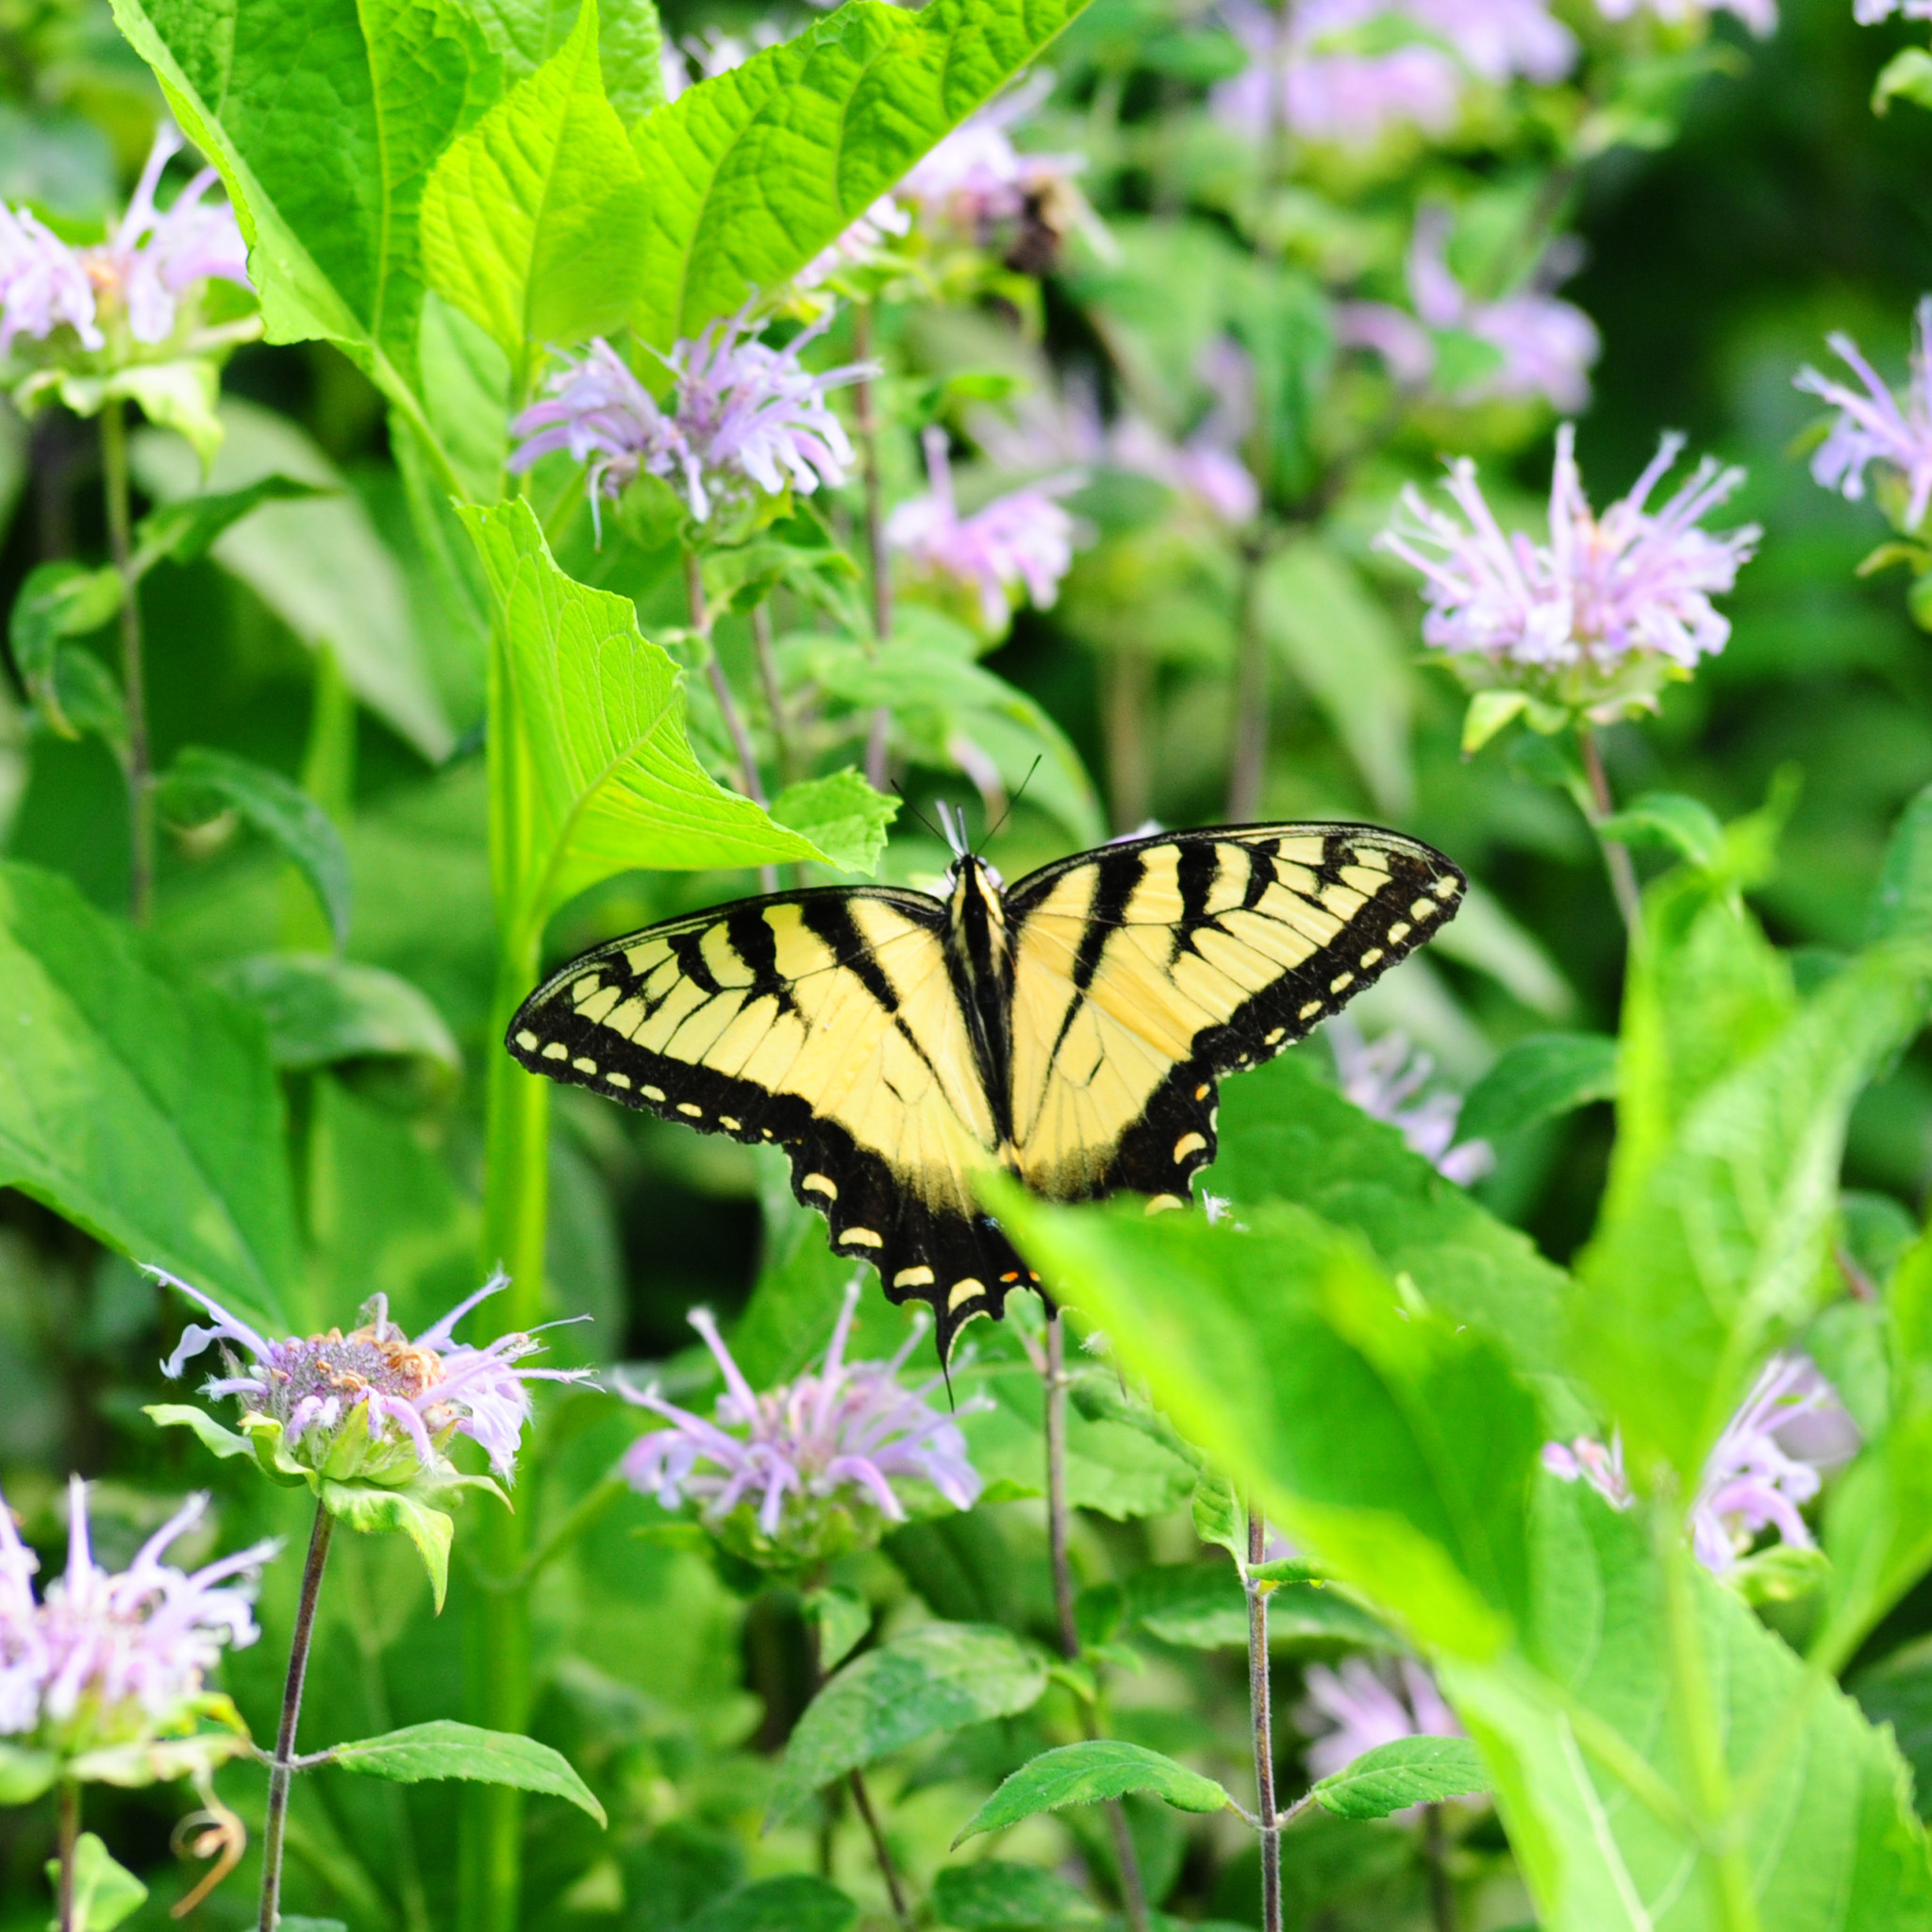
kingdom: Animalia
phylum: Arthropoda
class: Insecta
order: Lepidoptera
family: Papilionidae
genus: Papilio
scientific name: Papilio glaucus
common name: Tiger swallowtail
